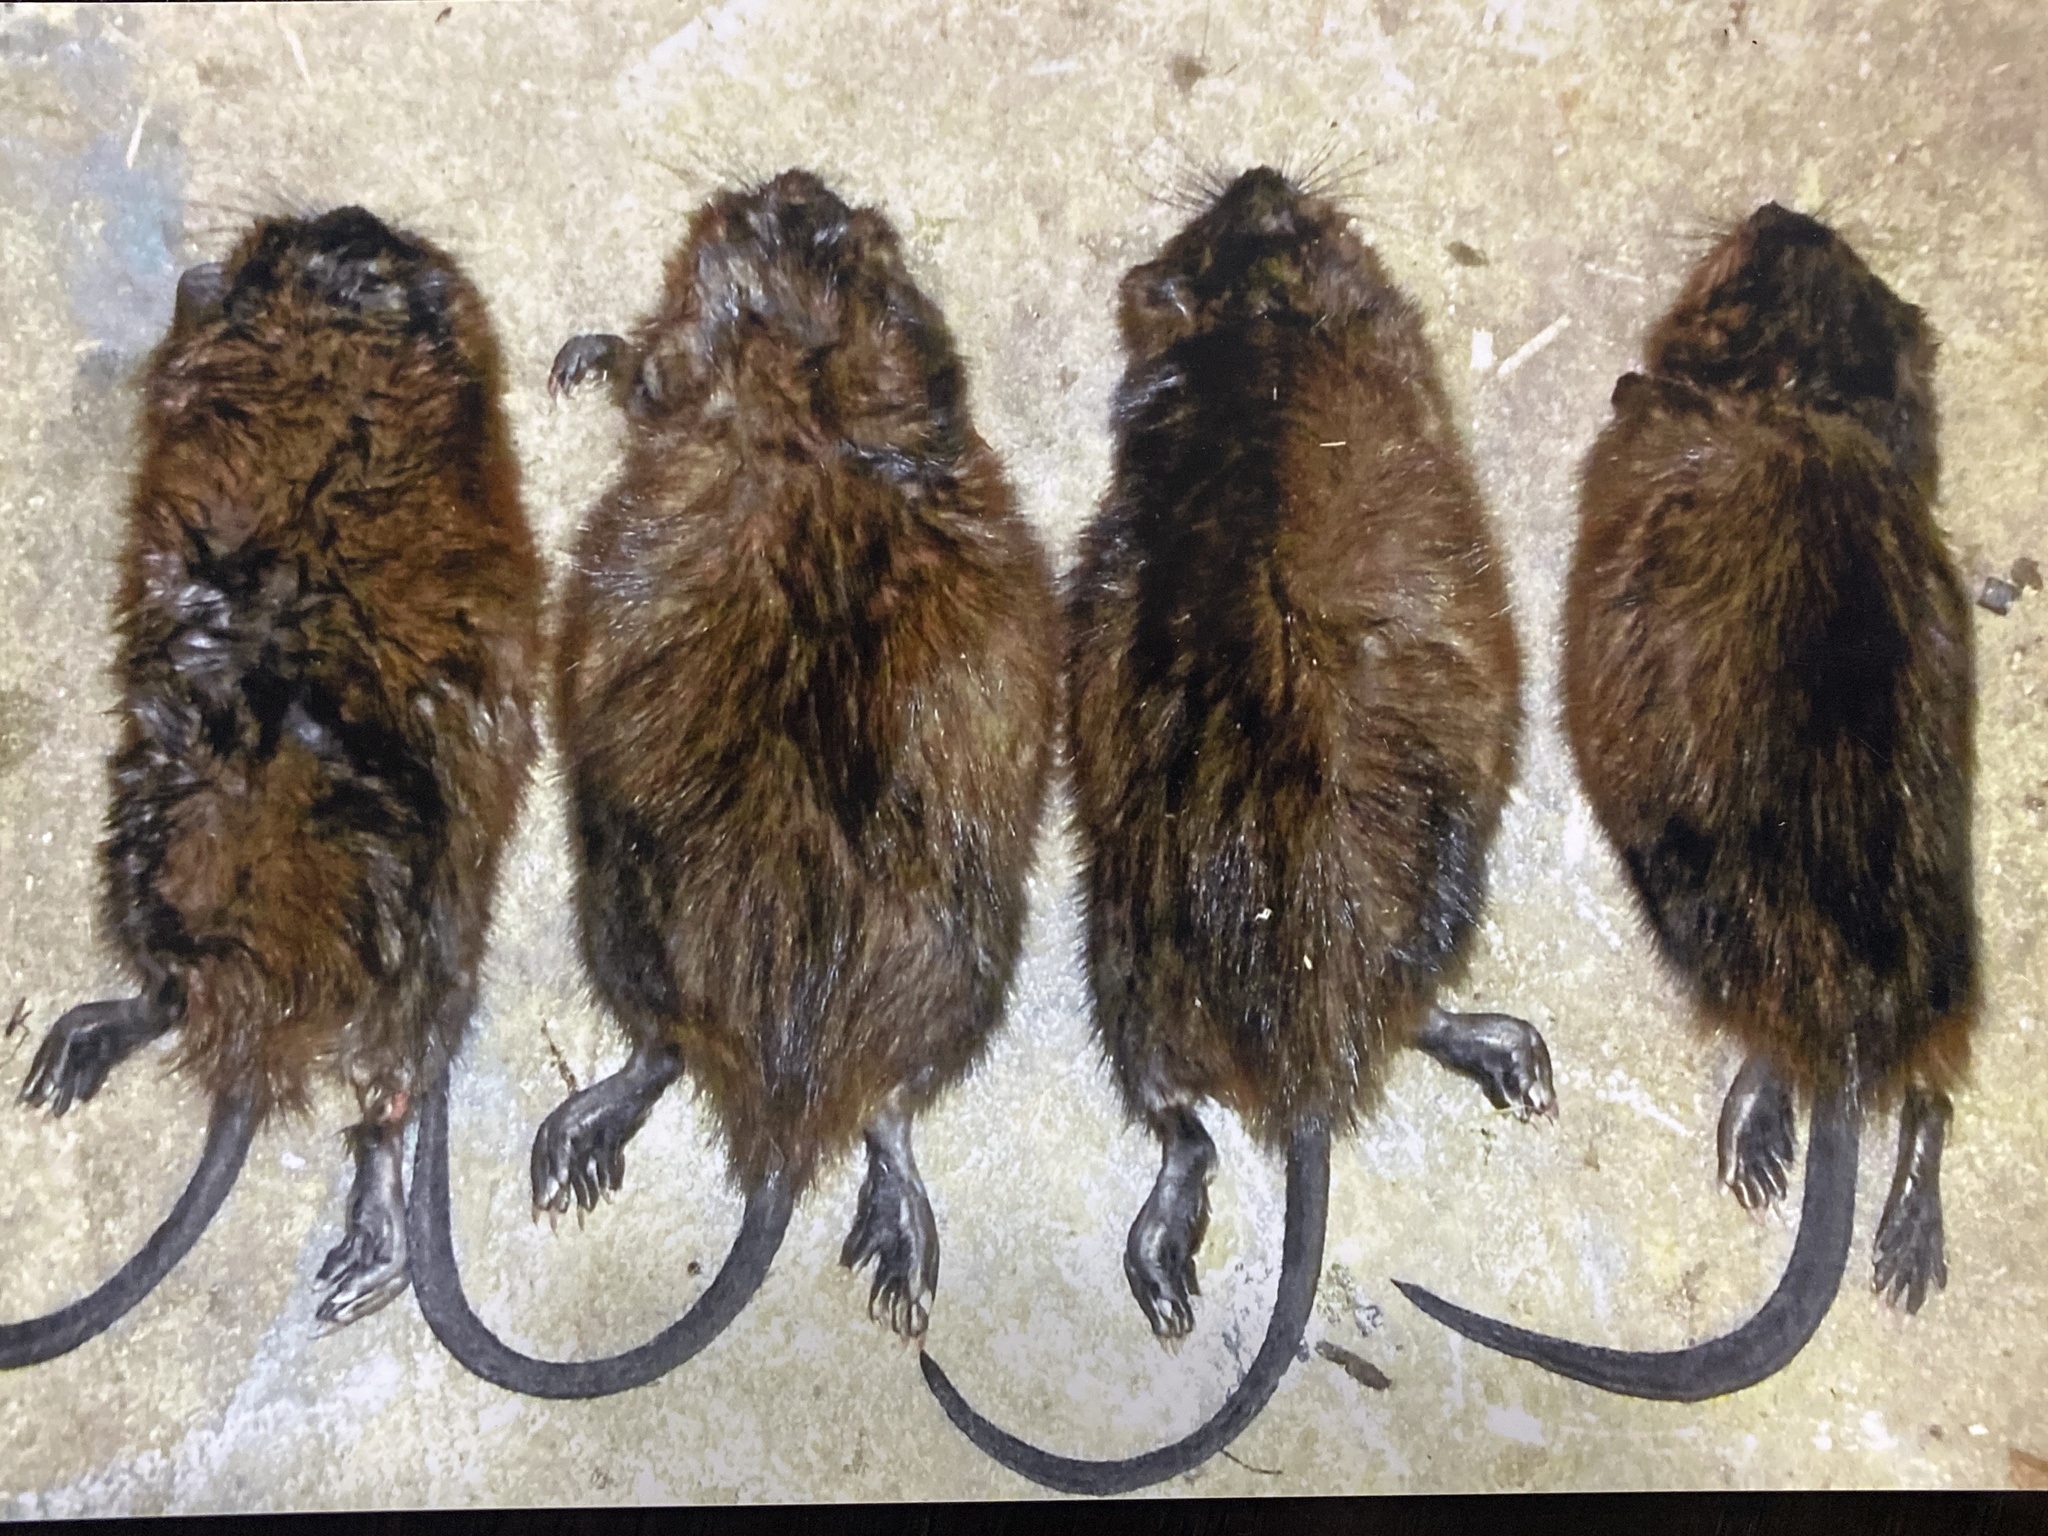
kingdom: Animalia
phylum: Chordata
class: Mammalia
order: Rodentia
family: Cricetidae
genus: Ondatra
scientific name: Ondatra zibethicus
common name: Muskrat
